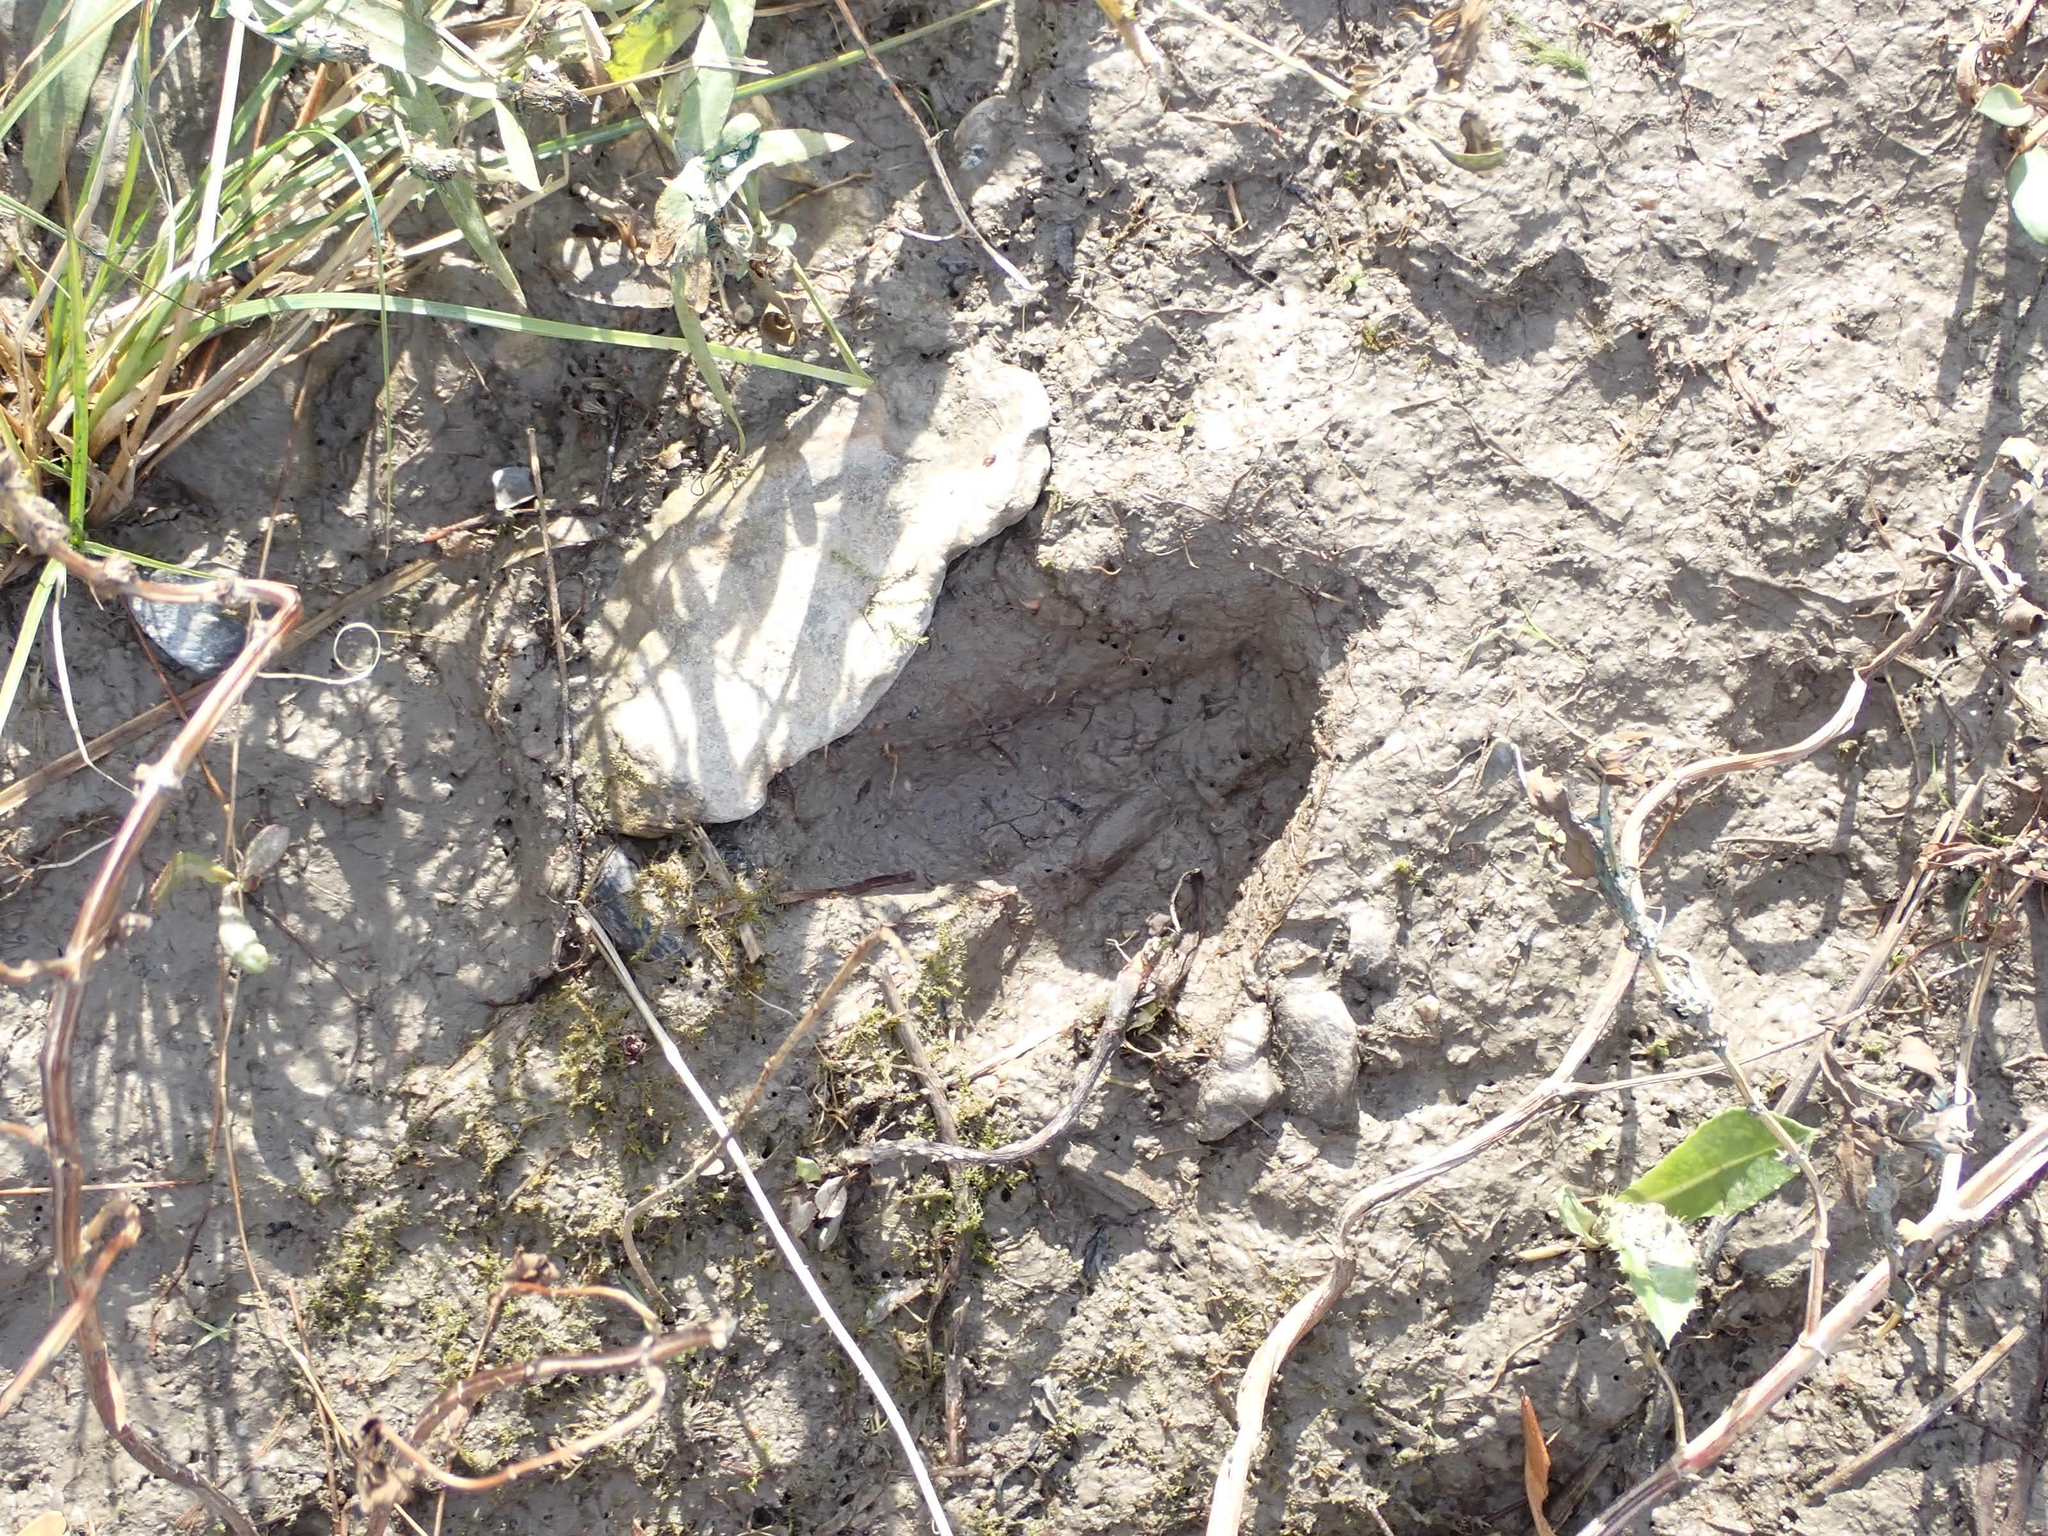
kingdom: Animalia
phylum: Chordata
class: Mammalia
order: Artiodactyla
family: Cervidae
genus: Odocoileus
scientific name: Odocoileus virginianus
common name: White-tailed deer
